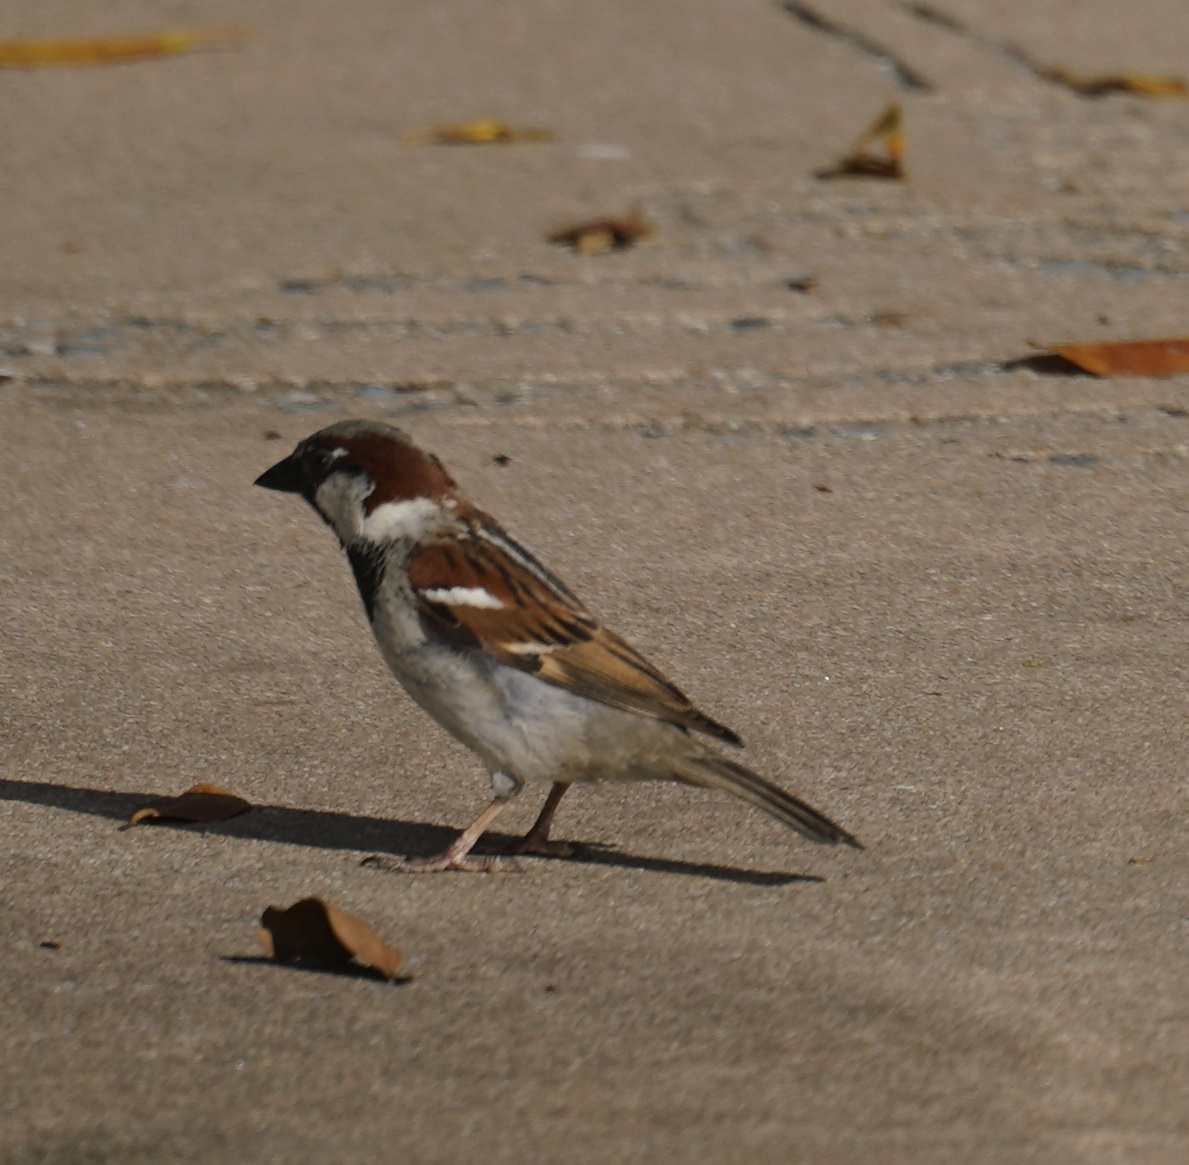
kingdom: Animalia
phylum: Chordata
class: Aves
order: Passeriformes
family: Passeridae
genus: Passer
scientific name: Passer domesticus
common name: House sparrow
